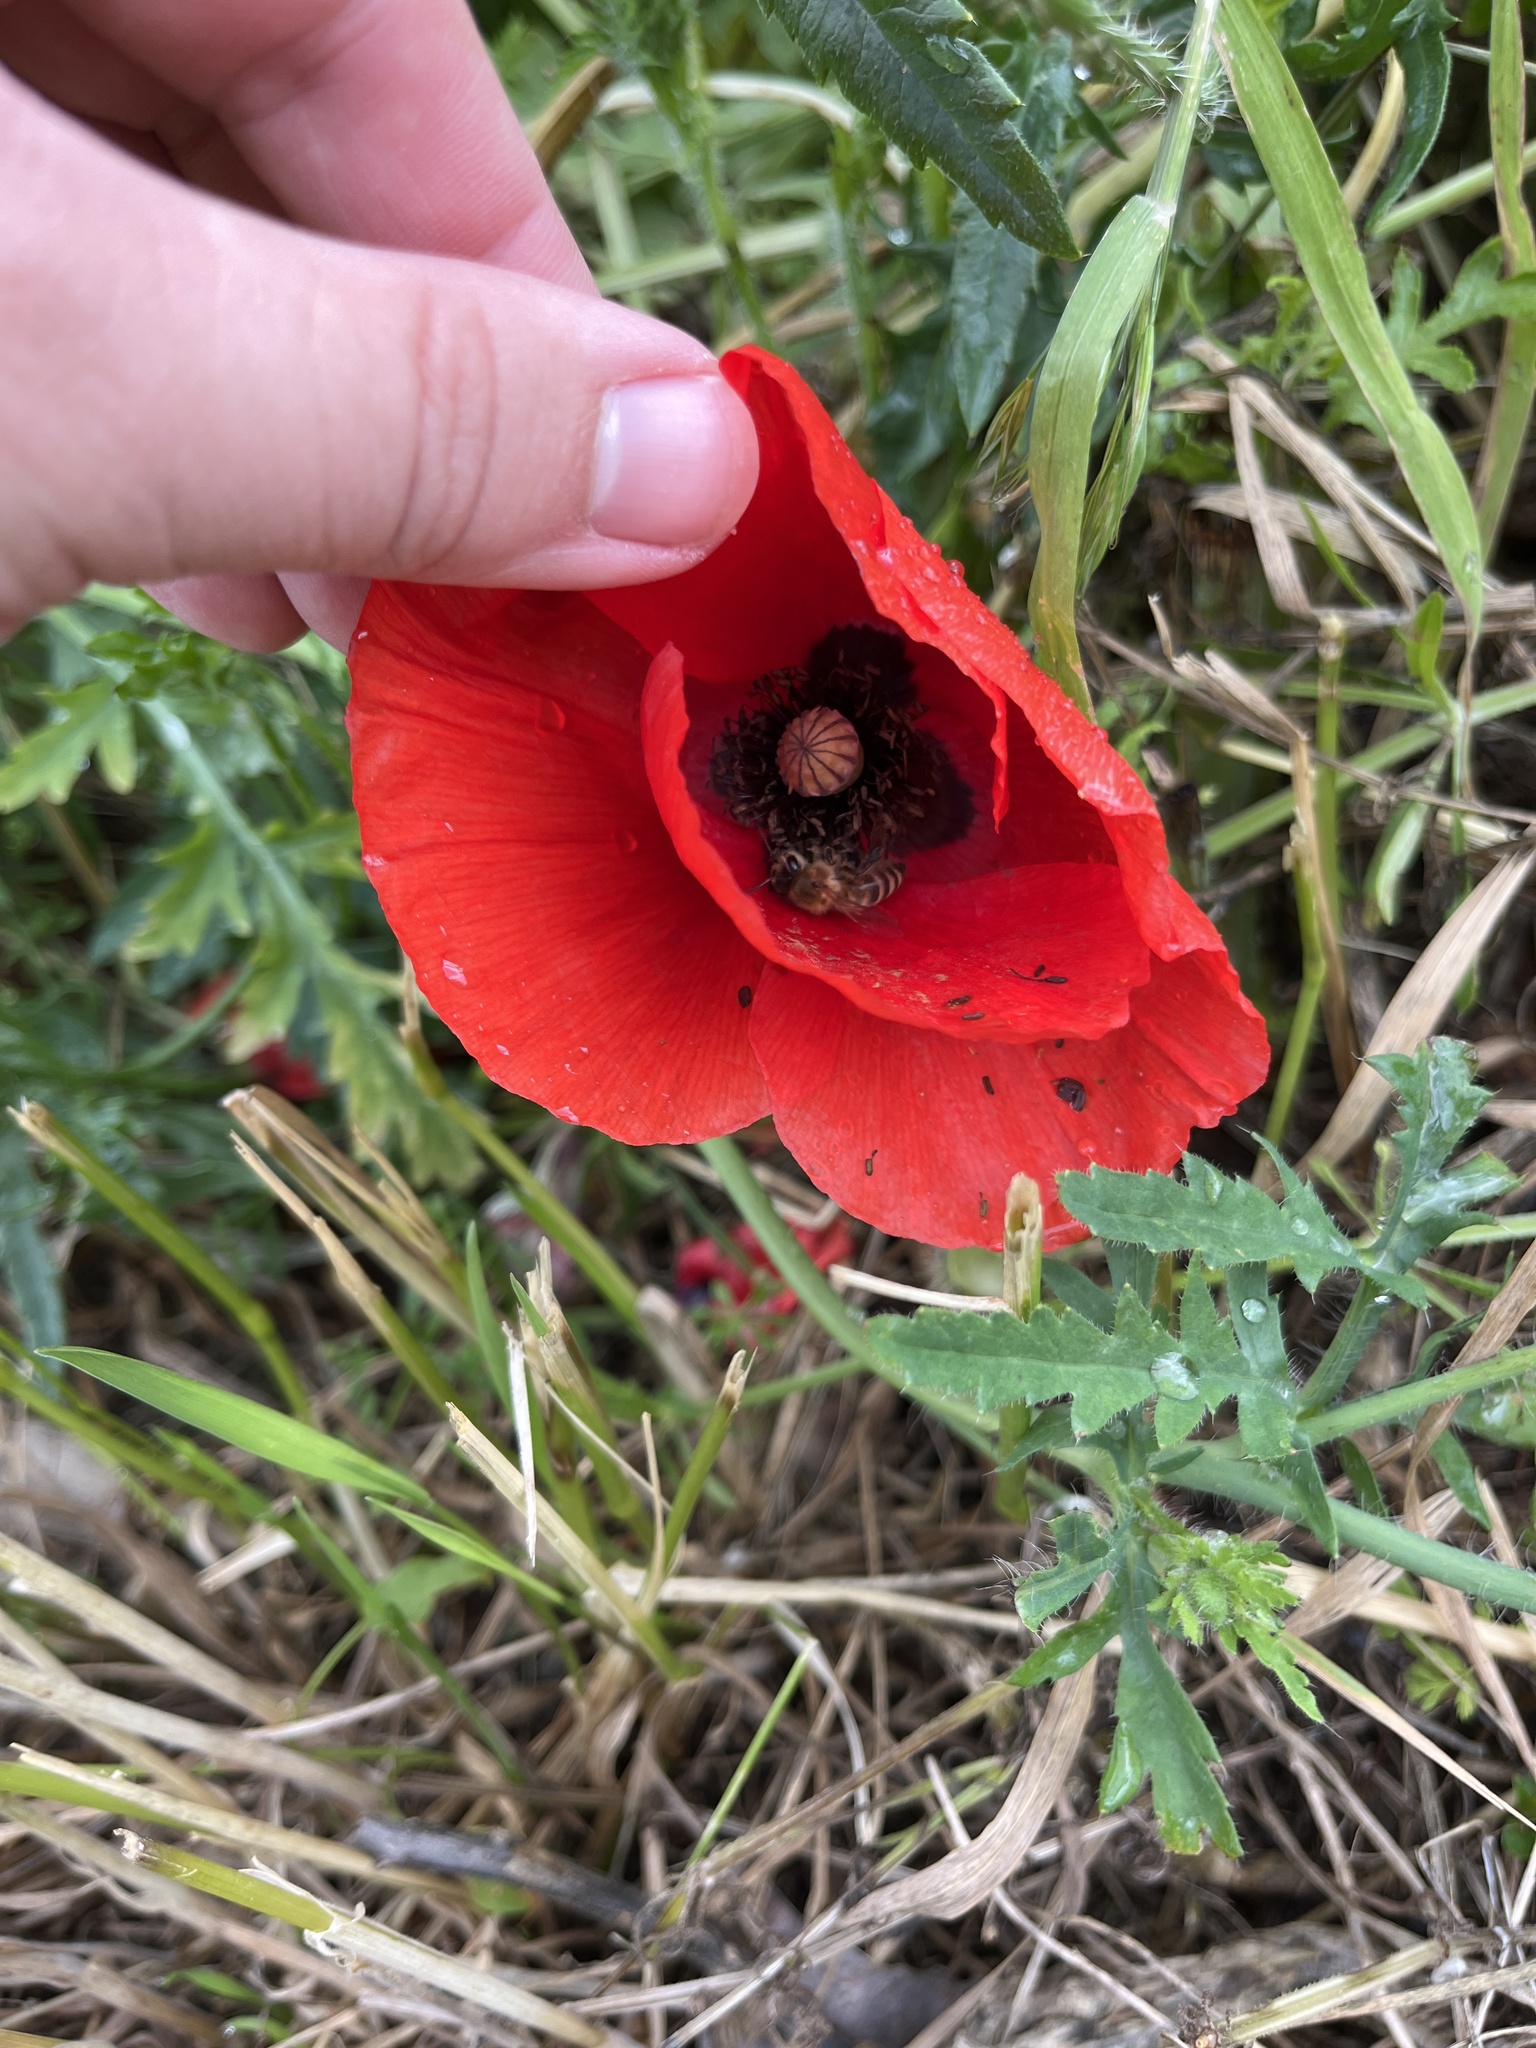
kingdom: Animalia
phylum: Arthropoda
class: Insecta
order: Hymenoptera
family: Apidae
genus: Apis
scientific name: Apis mellifera
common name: Honey bee
